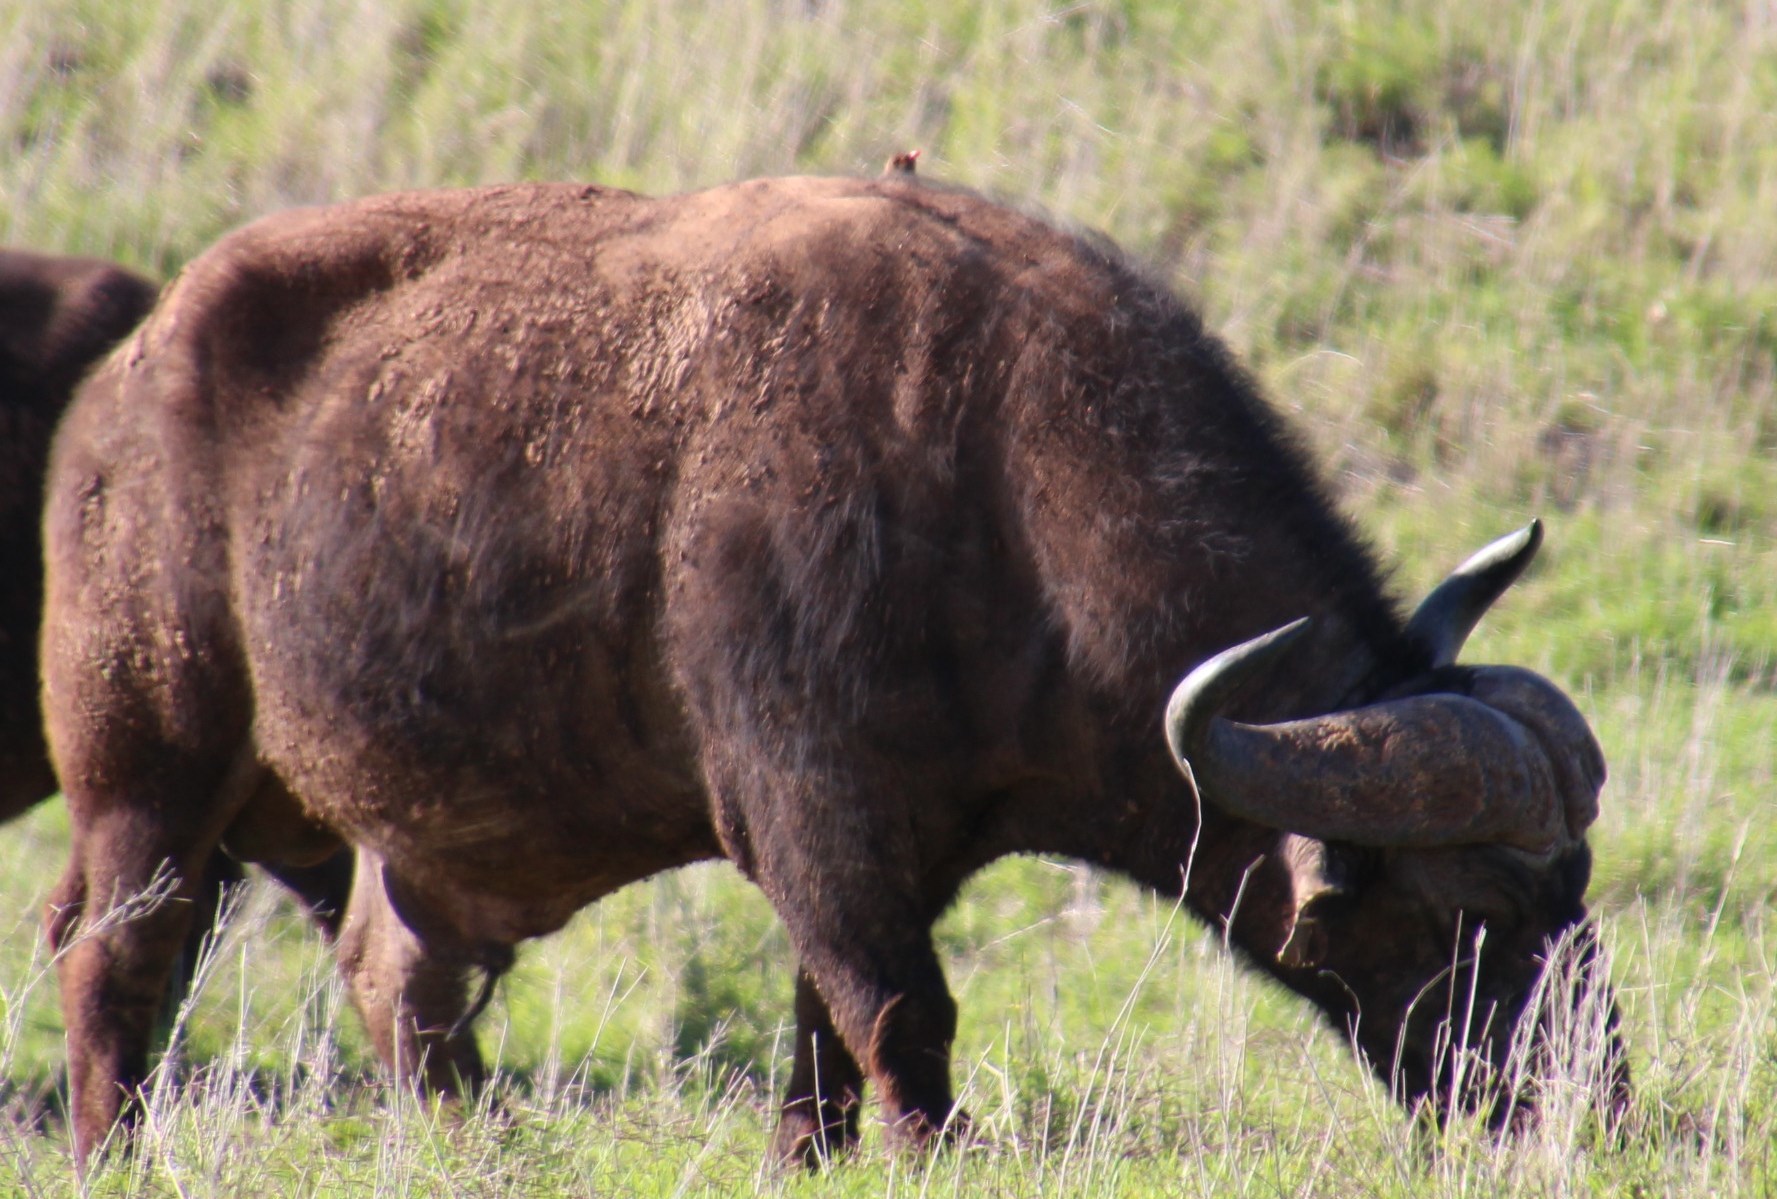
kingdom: Animalia
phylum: Chordata
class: Aves
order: Passeriformes
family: Buphagidae
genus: Buphagus
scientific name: Buphagus erythrorhynchus
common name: Red-billed oxpecker
